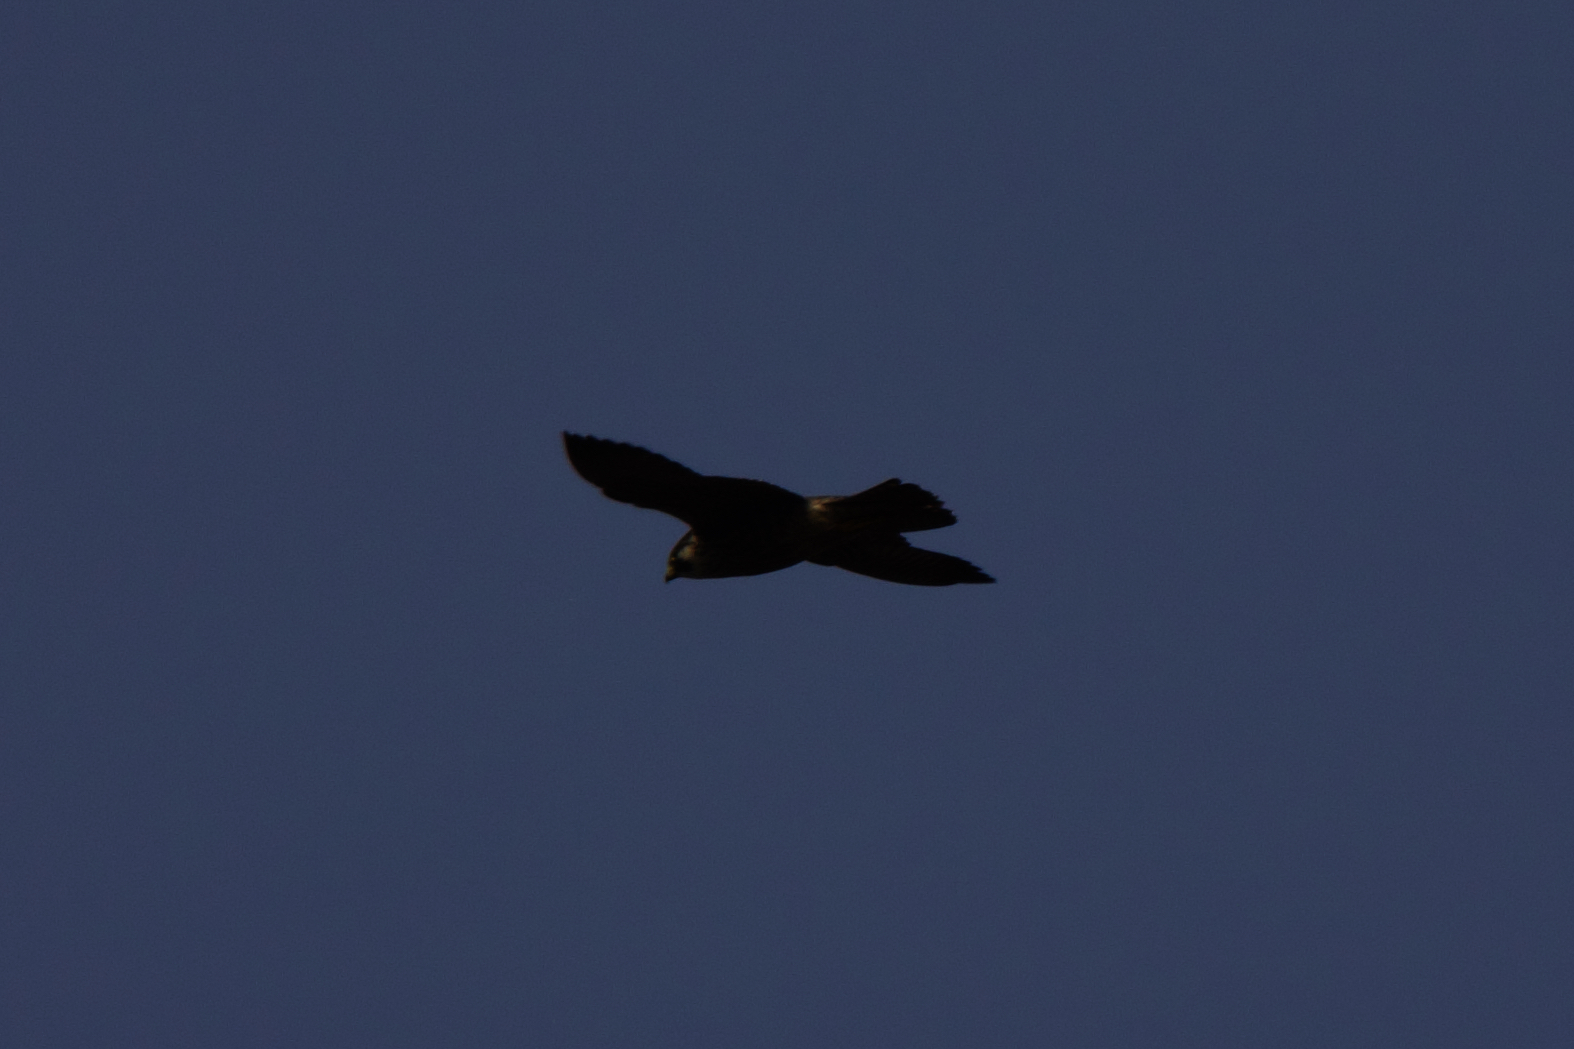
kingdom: Animalia
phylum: Chordata
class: Aves
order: Falconiformes
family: Falconidae
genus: Falco
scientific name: Falco peregrinus
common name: Peregrine falcon
